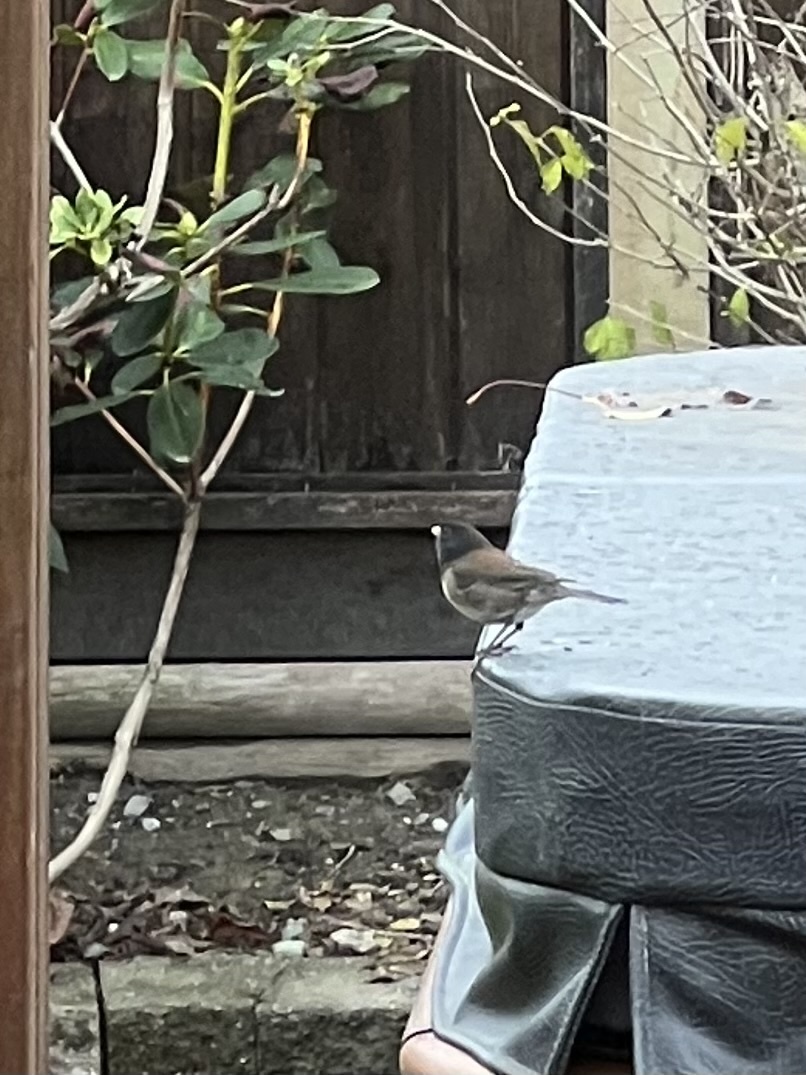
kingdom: Animalia
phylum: Chordata
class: Aves
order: Passeriformes
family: Passerellidae
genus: Junco
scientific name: Junco hyemalis
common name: Dark-eyed junco
